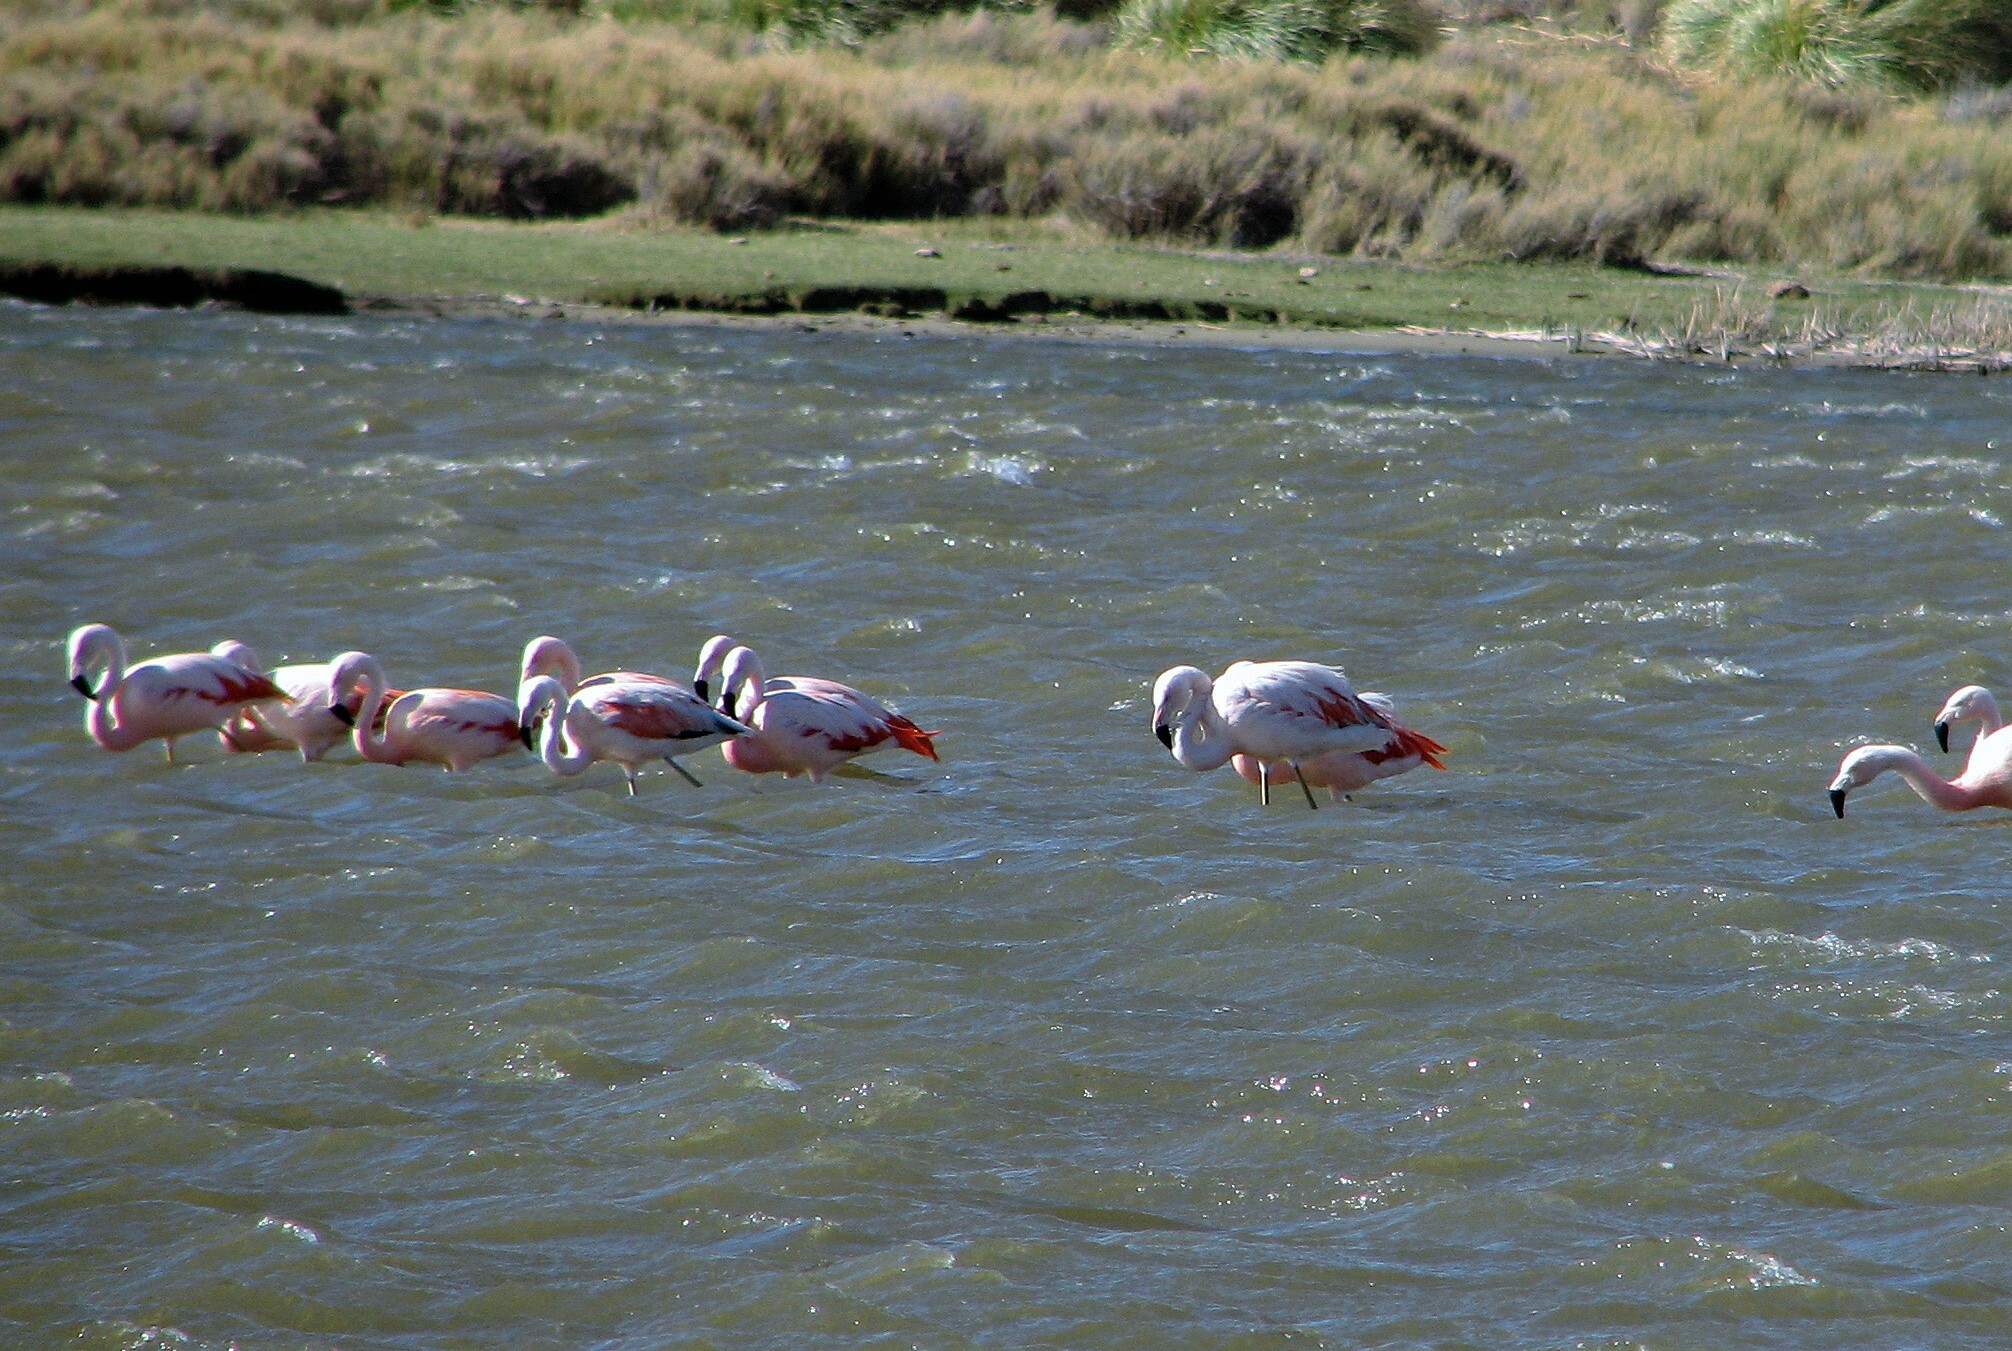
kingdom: Animalia
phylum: Chordata
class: Aves
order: Phoenicopteriformes
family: Phoenicopteridae
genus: Phoenicopterus
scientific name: Phoenicopterus chilensis
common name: Chilean flamingo
